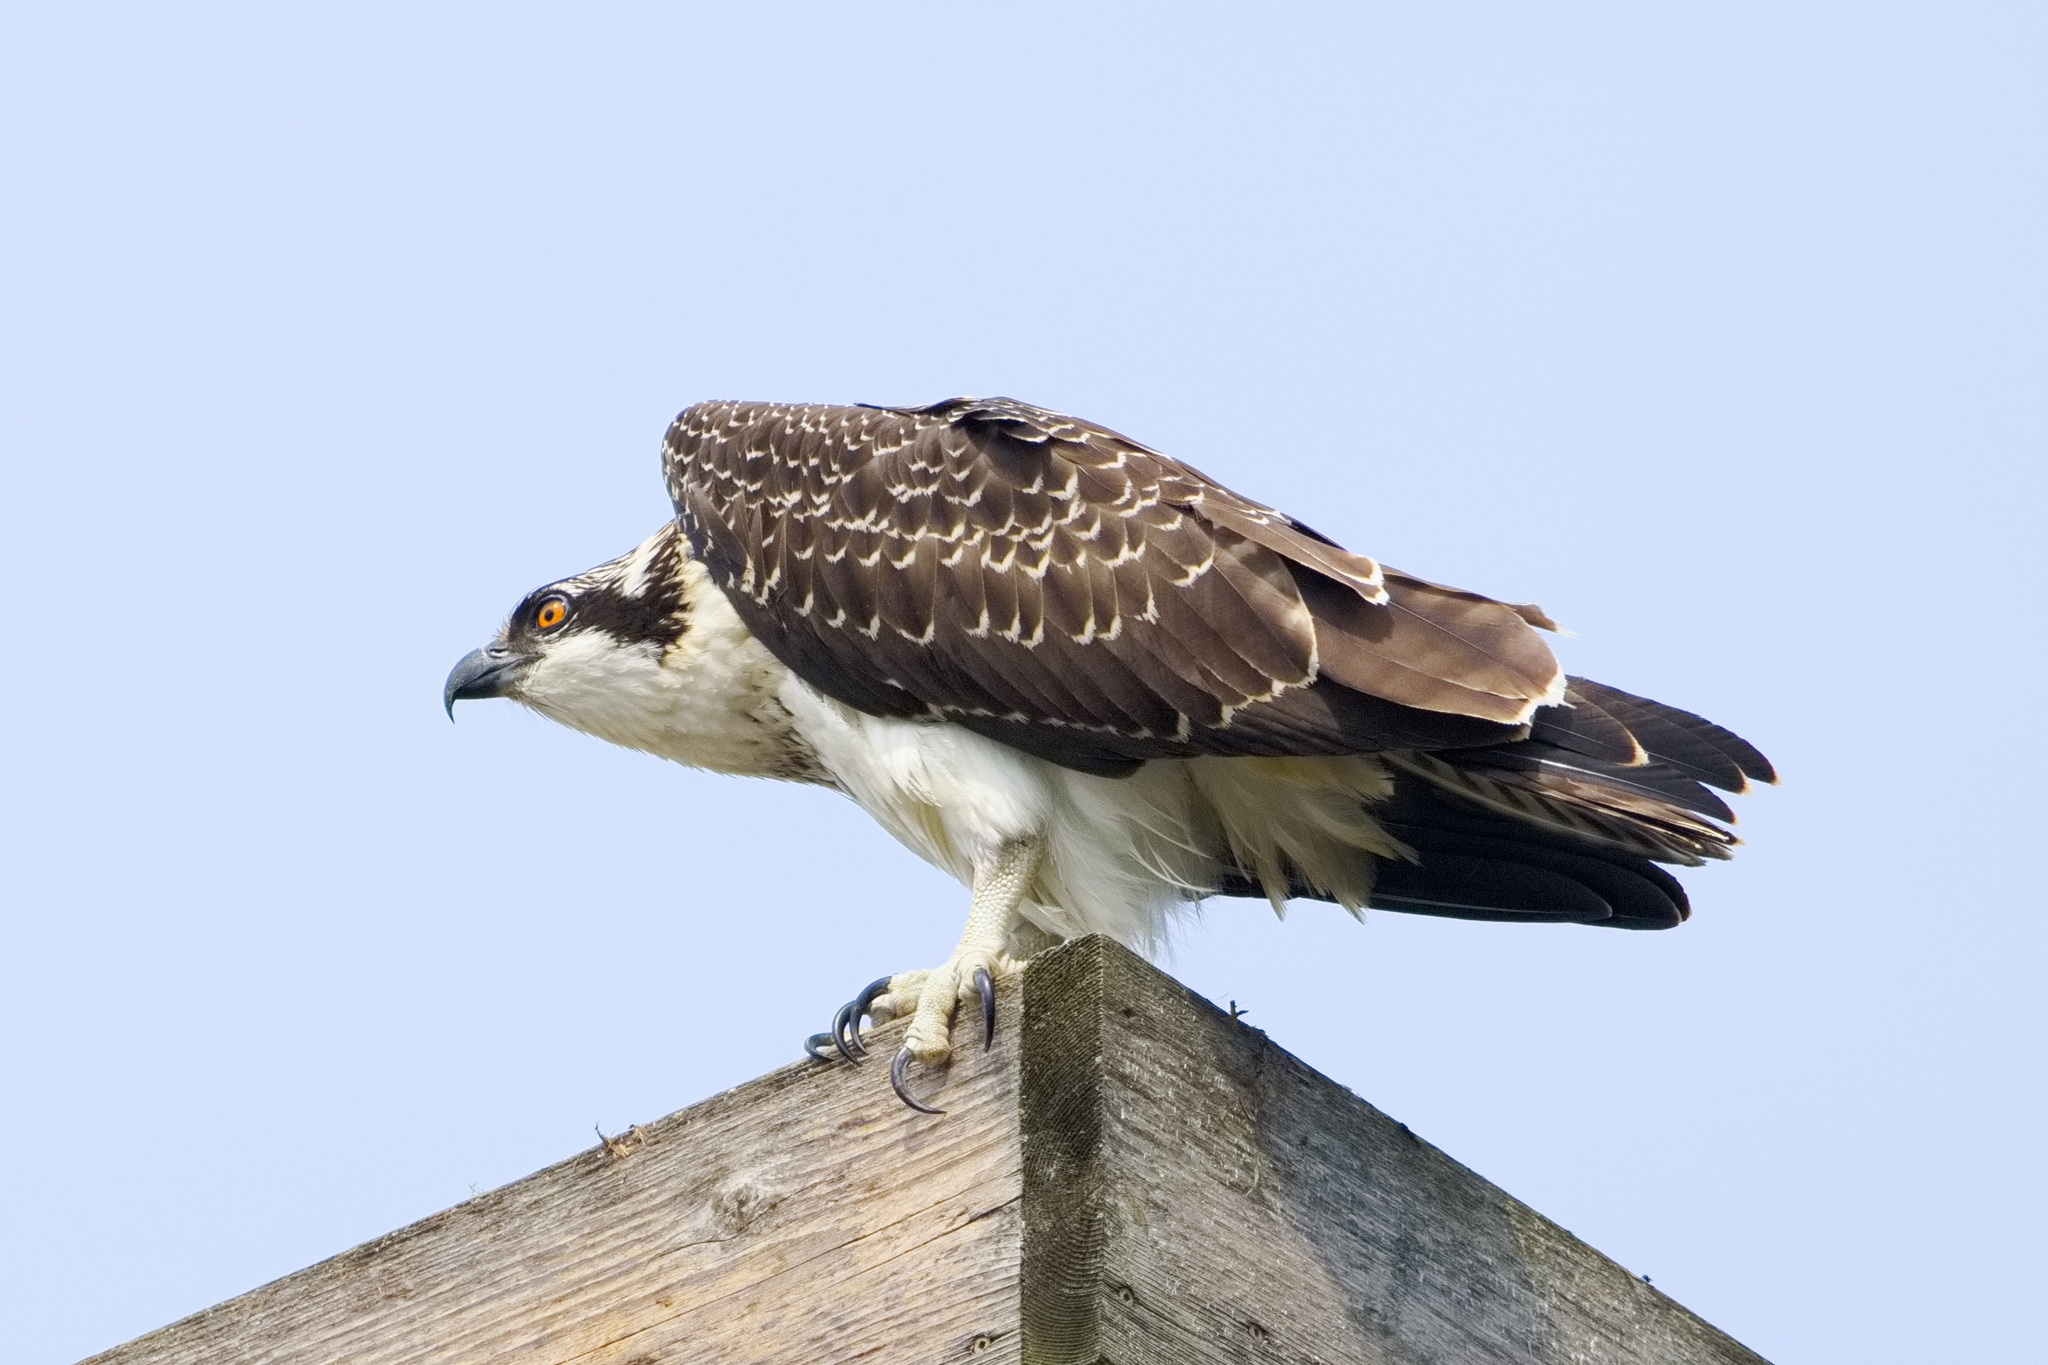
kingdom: Animalia
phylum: Chordata
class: Aves
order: Accipitriformes
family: Pandionidae
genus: Pandion
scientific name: Pandion haliaetus
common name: Osprey
